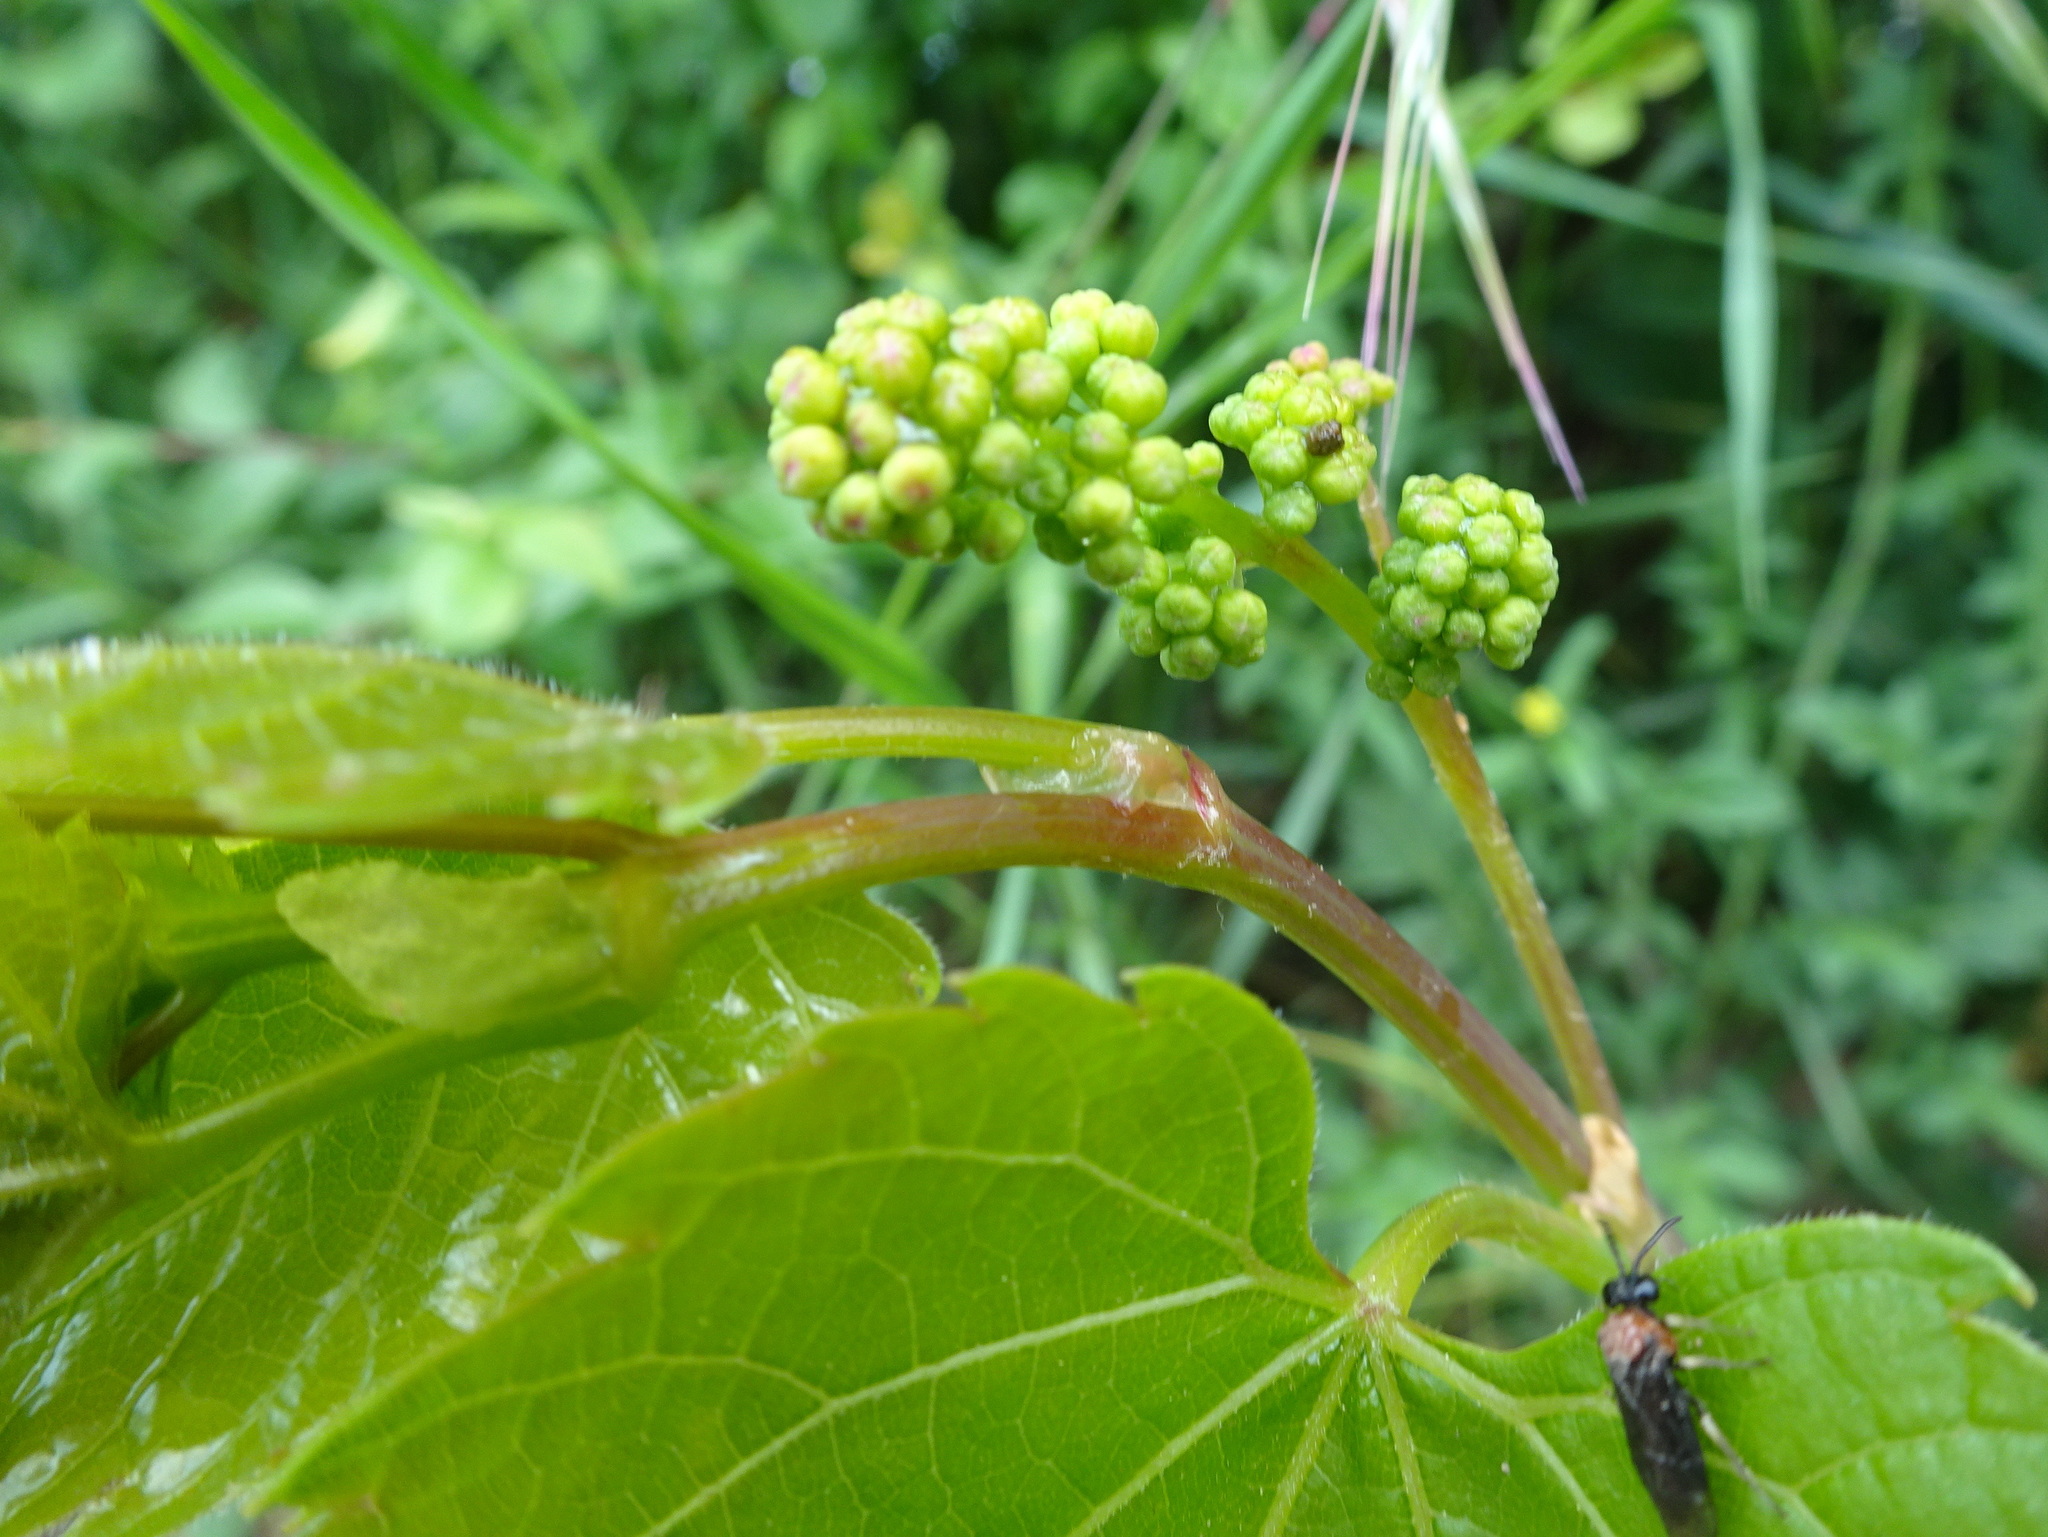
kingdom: Plantae
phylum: Tracheophyta
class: Magnoliopsida
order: Vitales
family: Vitaceae
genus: Vitis
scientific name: Vitis vinifera
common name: Grape-vine
